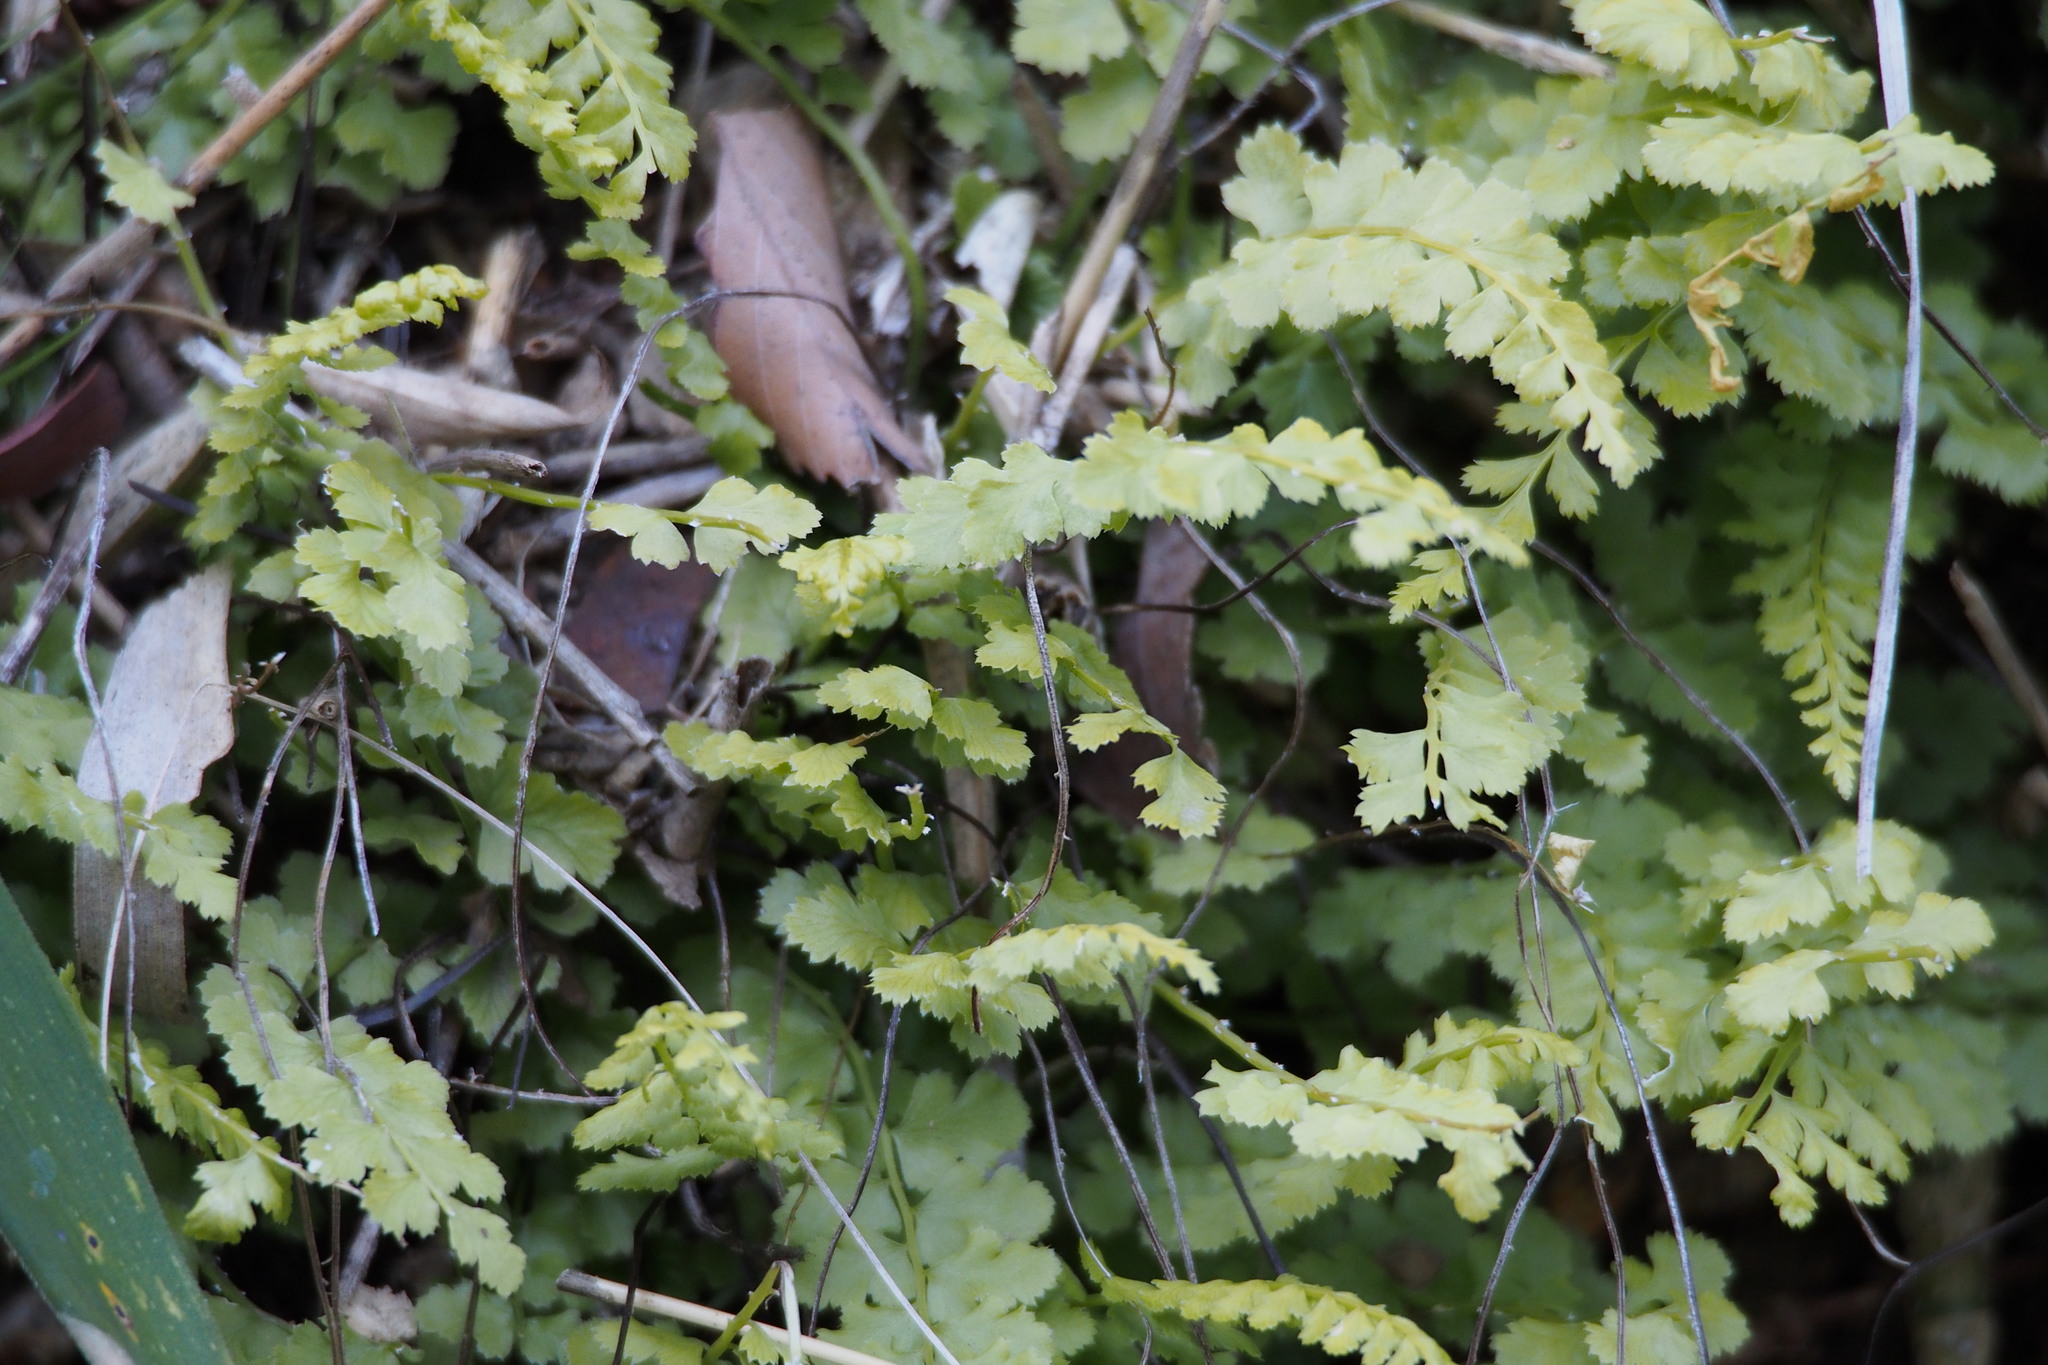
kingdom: Plantae
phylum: Tracheophyta
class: Polypodiopsida
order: Polypodiales
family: Aspleniaceae
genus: Asplenium
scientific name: Asplenium incisum
